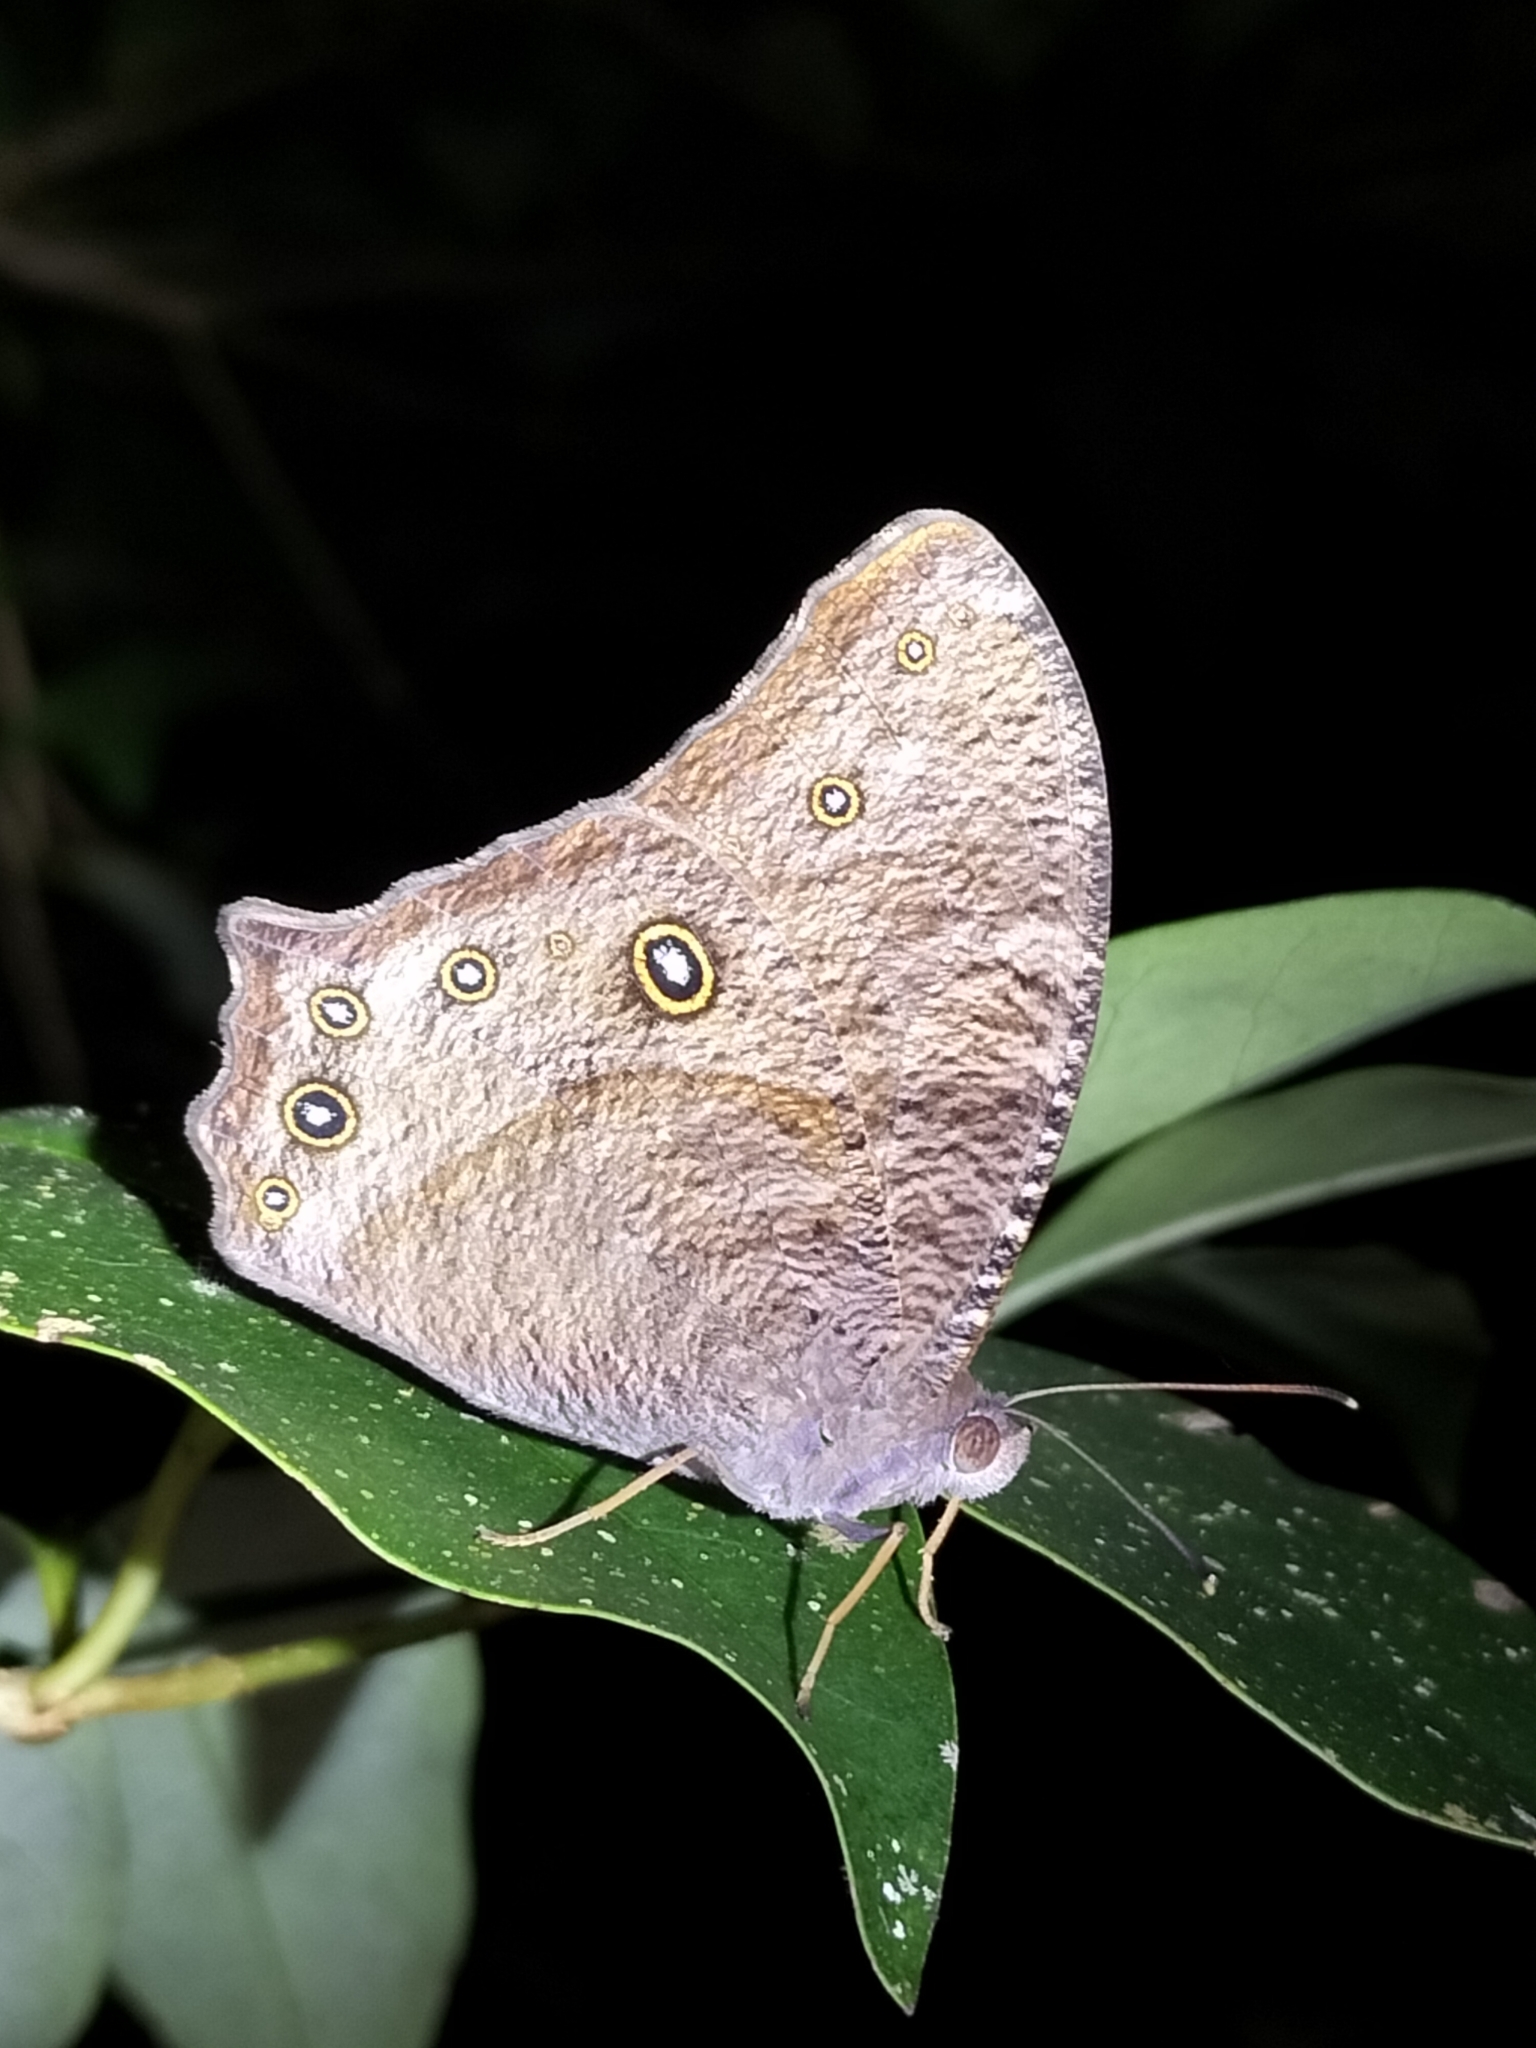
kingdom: Animalia
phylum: Arthropoda
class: Insecta
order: Lepidoptera
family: Nymphalidae
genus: Melanitis
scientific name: Melanitis leda
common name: Twilight brown
